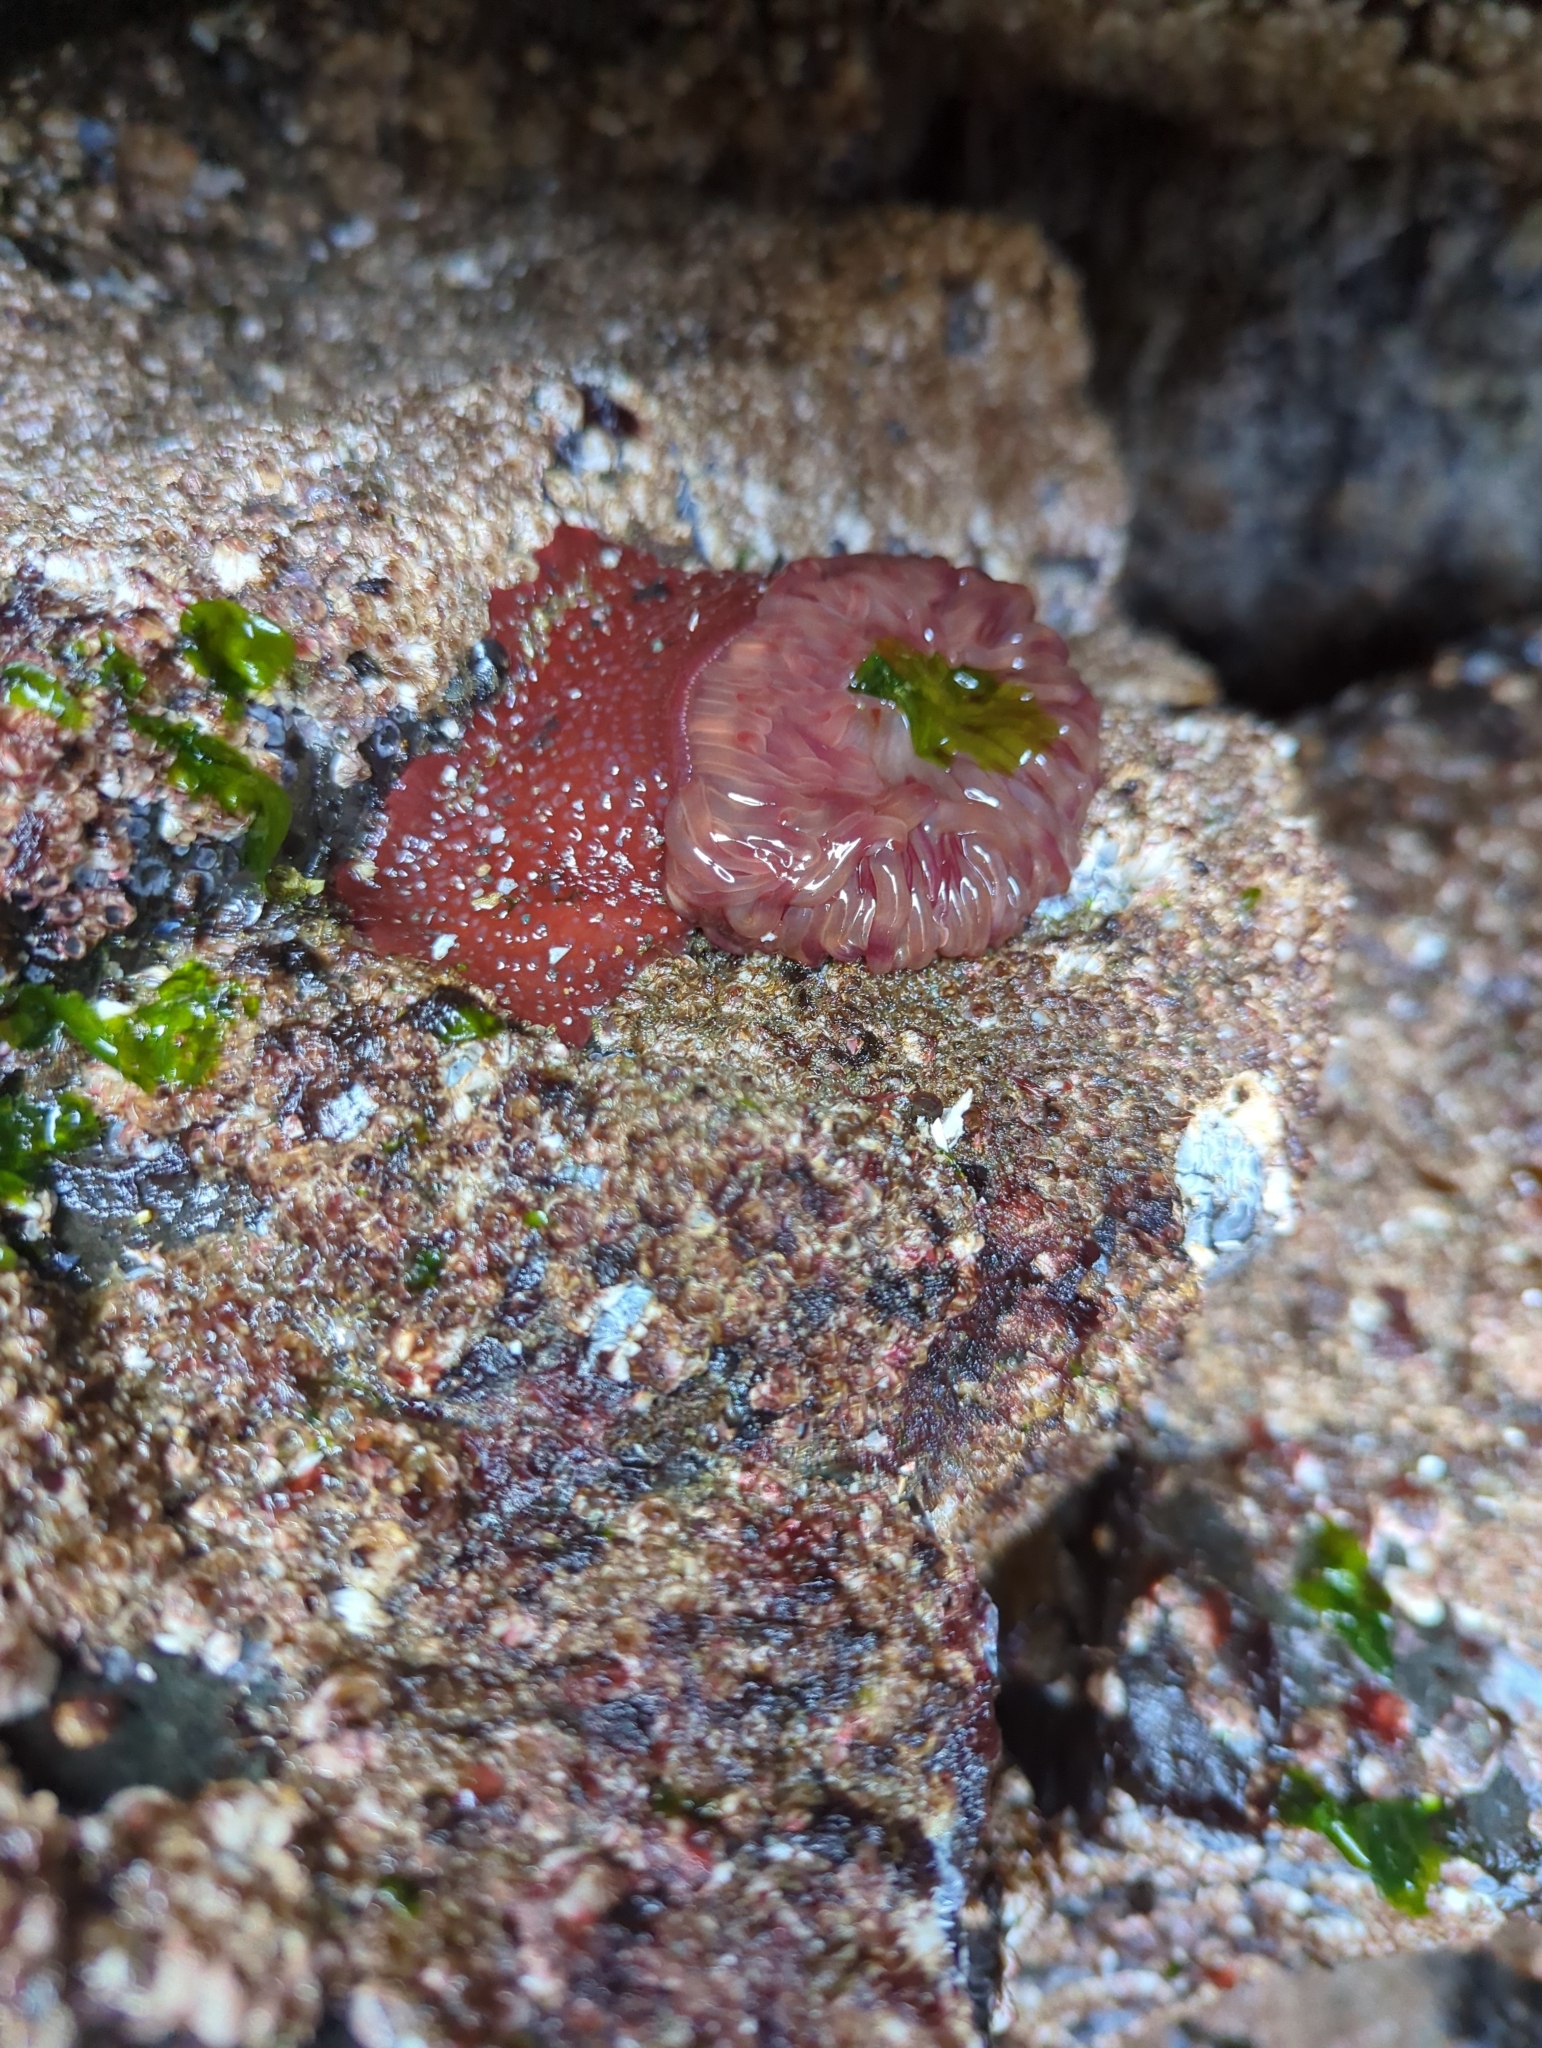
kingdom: Animalia
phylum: Cnidaria
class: Anthozoa
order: Actiniaria
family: Actiniidae
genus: Urticina
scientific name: Urticina grebelnyi
